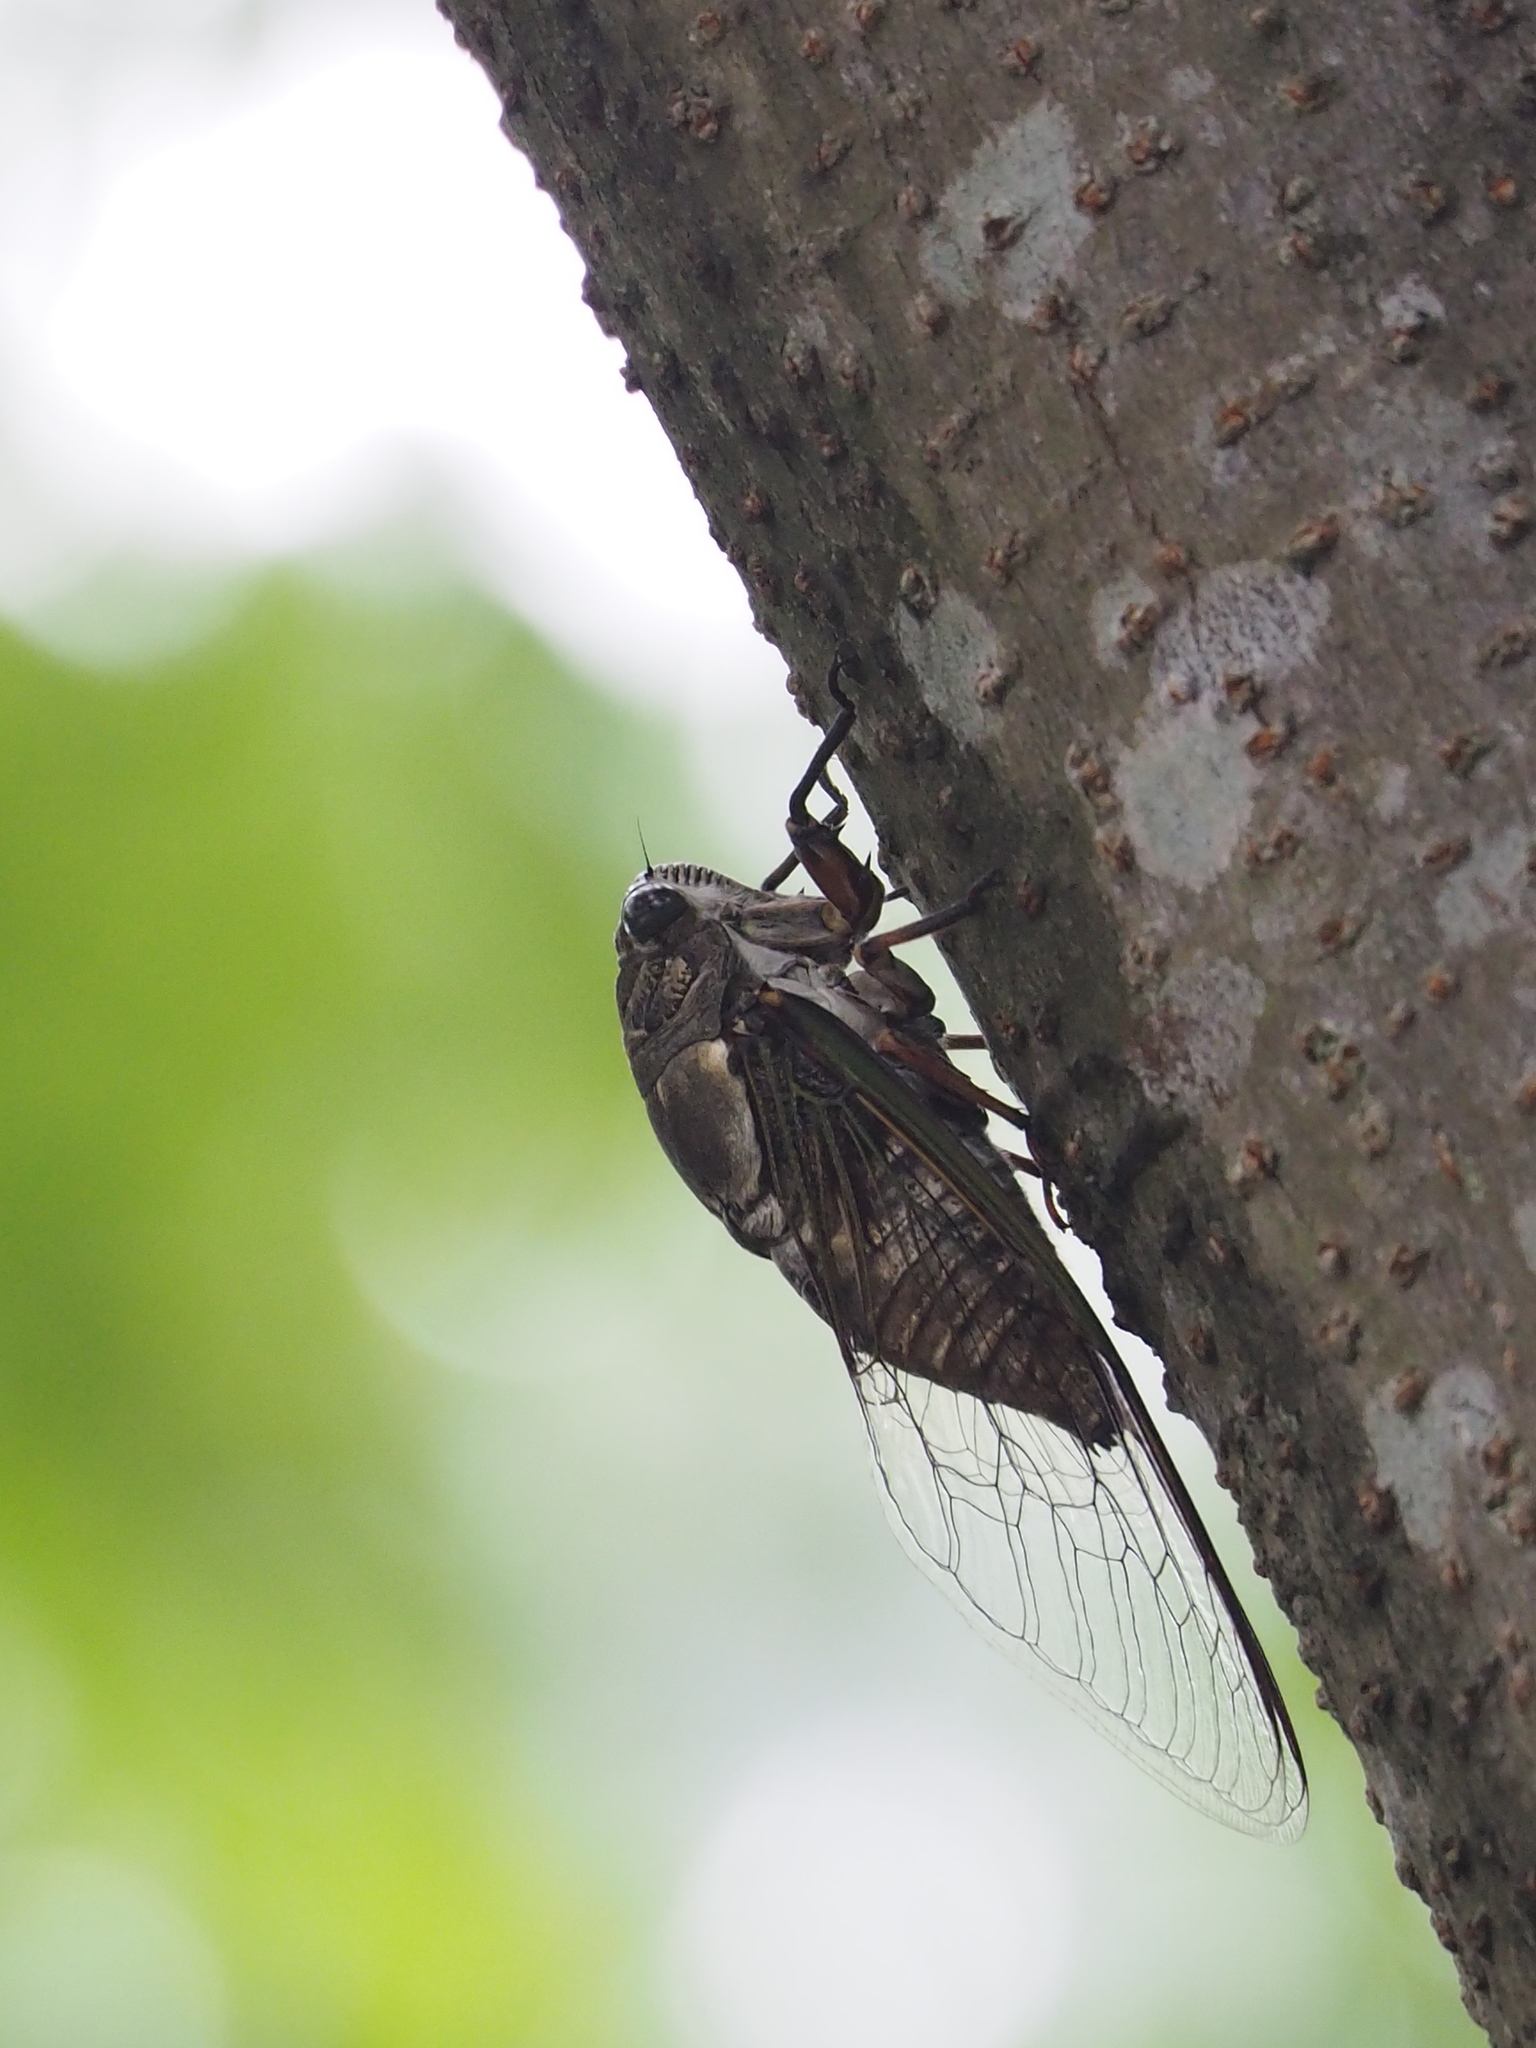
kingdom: Animalia
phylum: Arthropoda
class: Insecta
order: Hemiptera
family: Cicadidae
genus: Cryptotympana
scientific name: Cryptotympana takasagona
